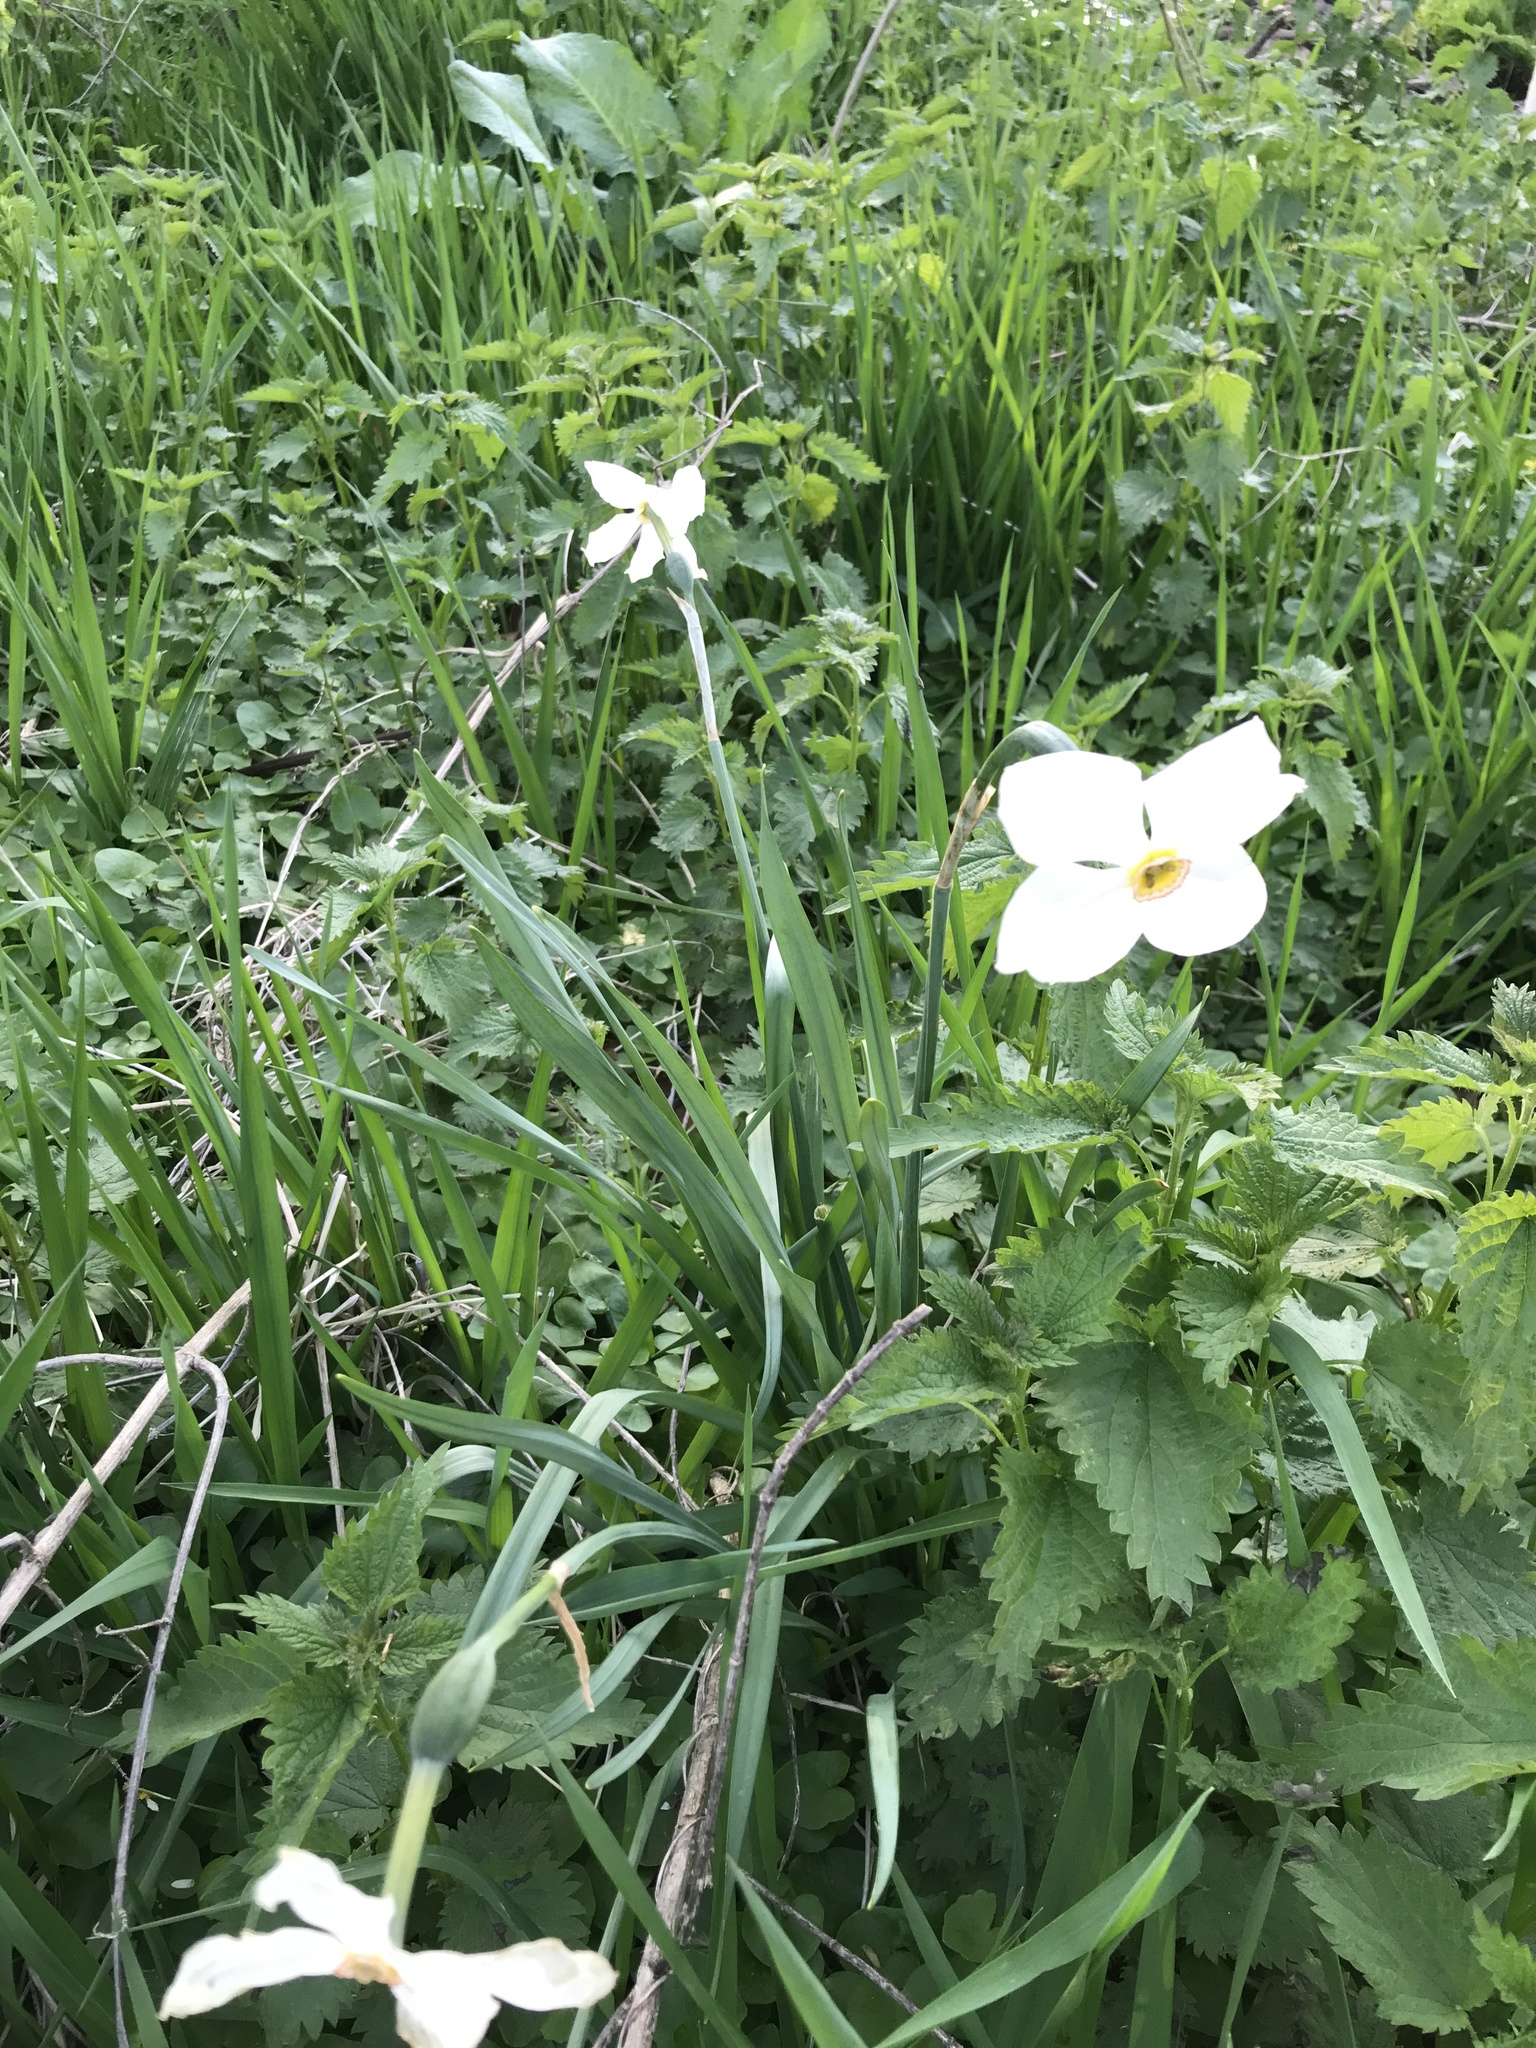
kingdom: Plantae
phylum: Tracheophyta
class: Liliopsida
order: Asparagales
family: Amaryllidaceae
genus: Narcissus
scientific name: Narcissus poeticus
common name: Pheasant's-eye daffodil
